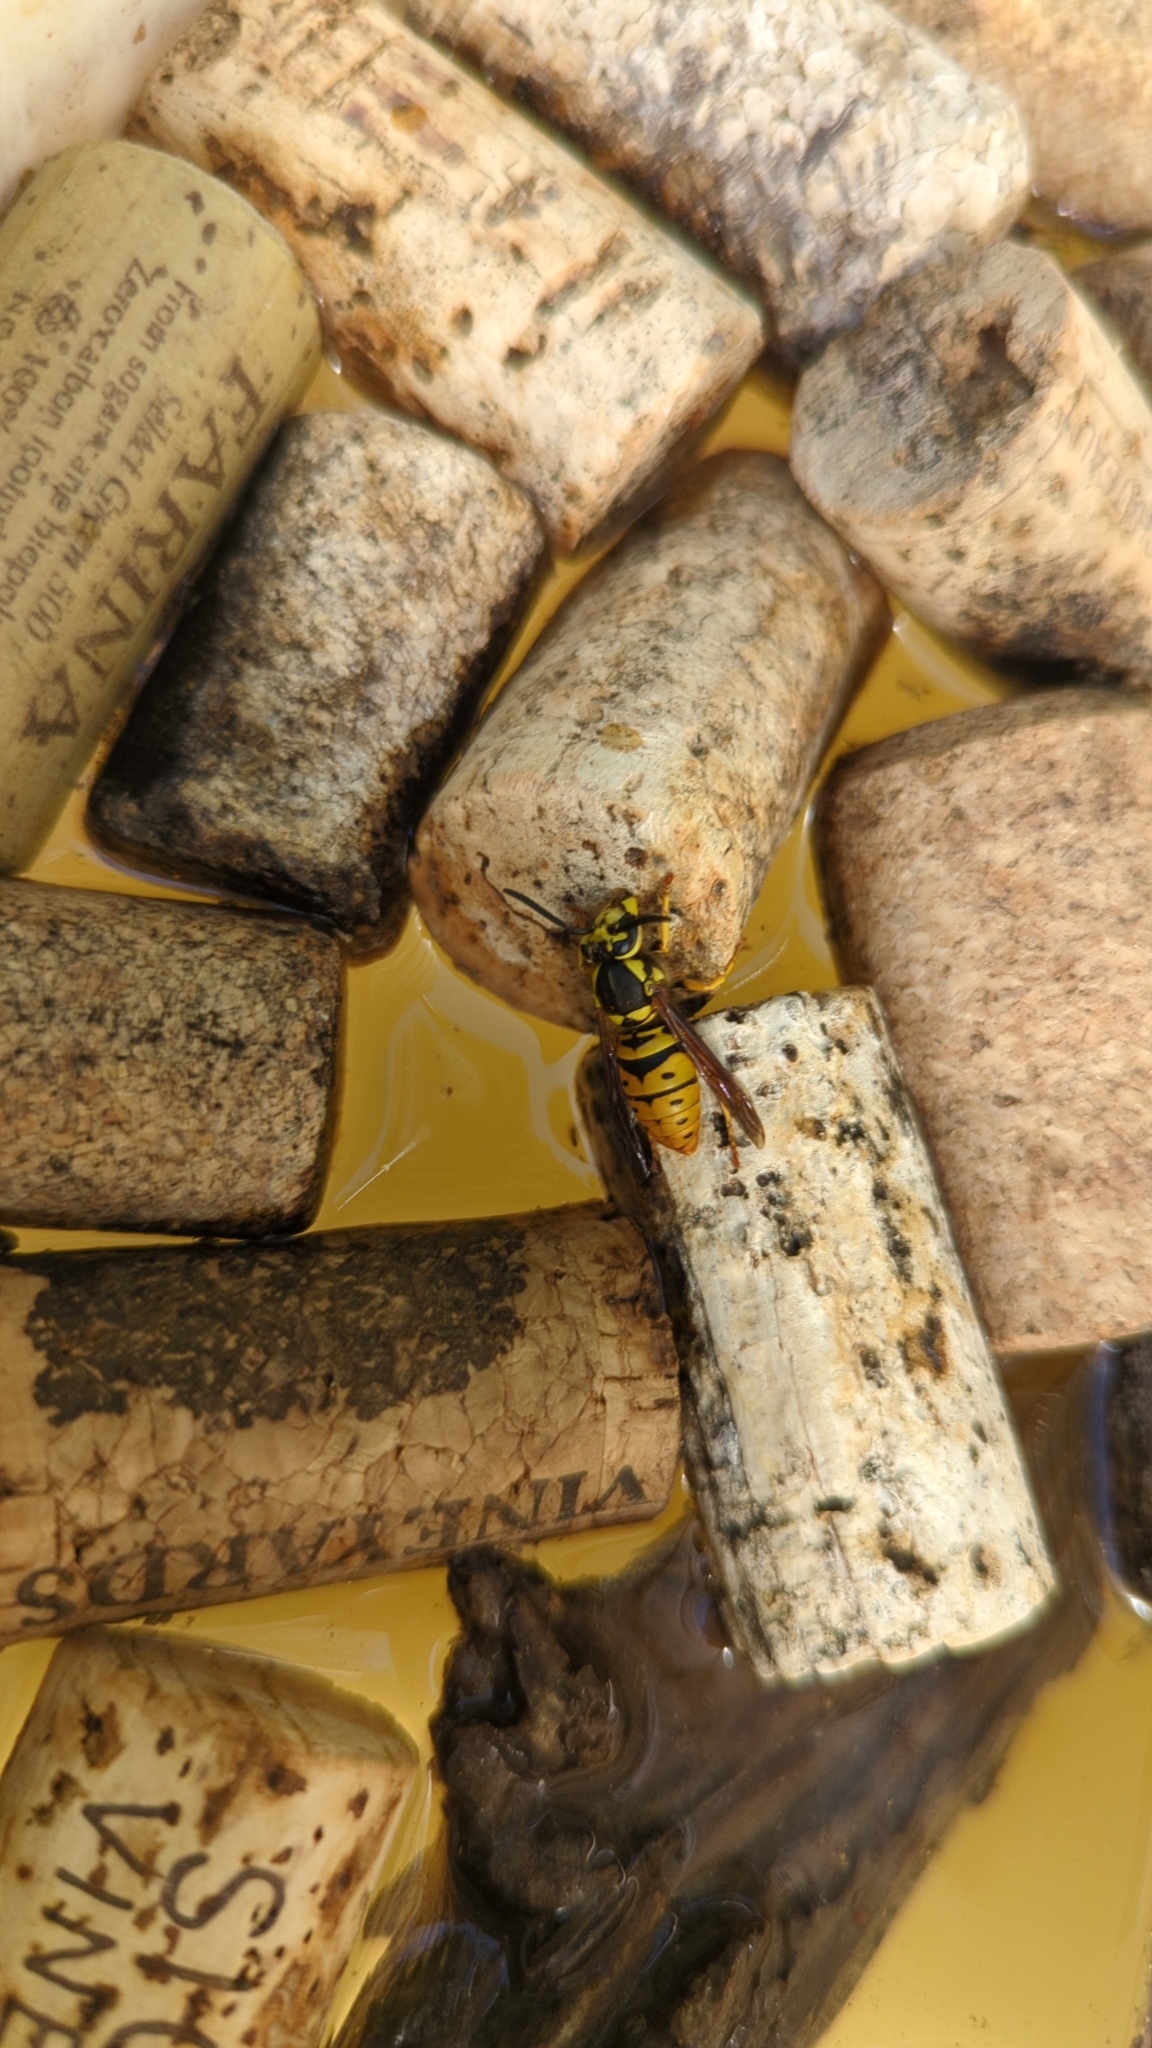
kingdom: Animalia
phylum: Arthropoda
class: Insecta
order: Hymenoptera
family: Vespidae
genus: Vespula
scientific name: Vespula maculifrons
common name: Eastern yellowjacket
